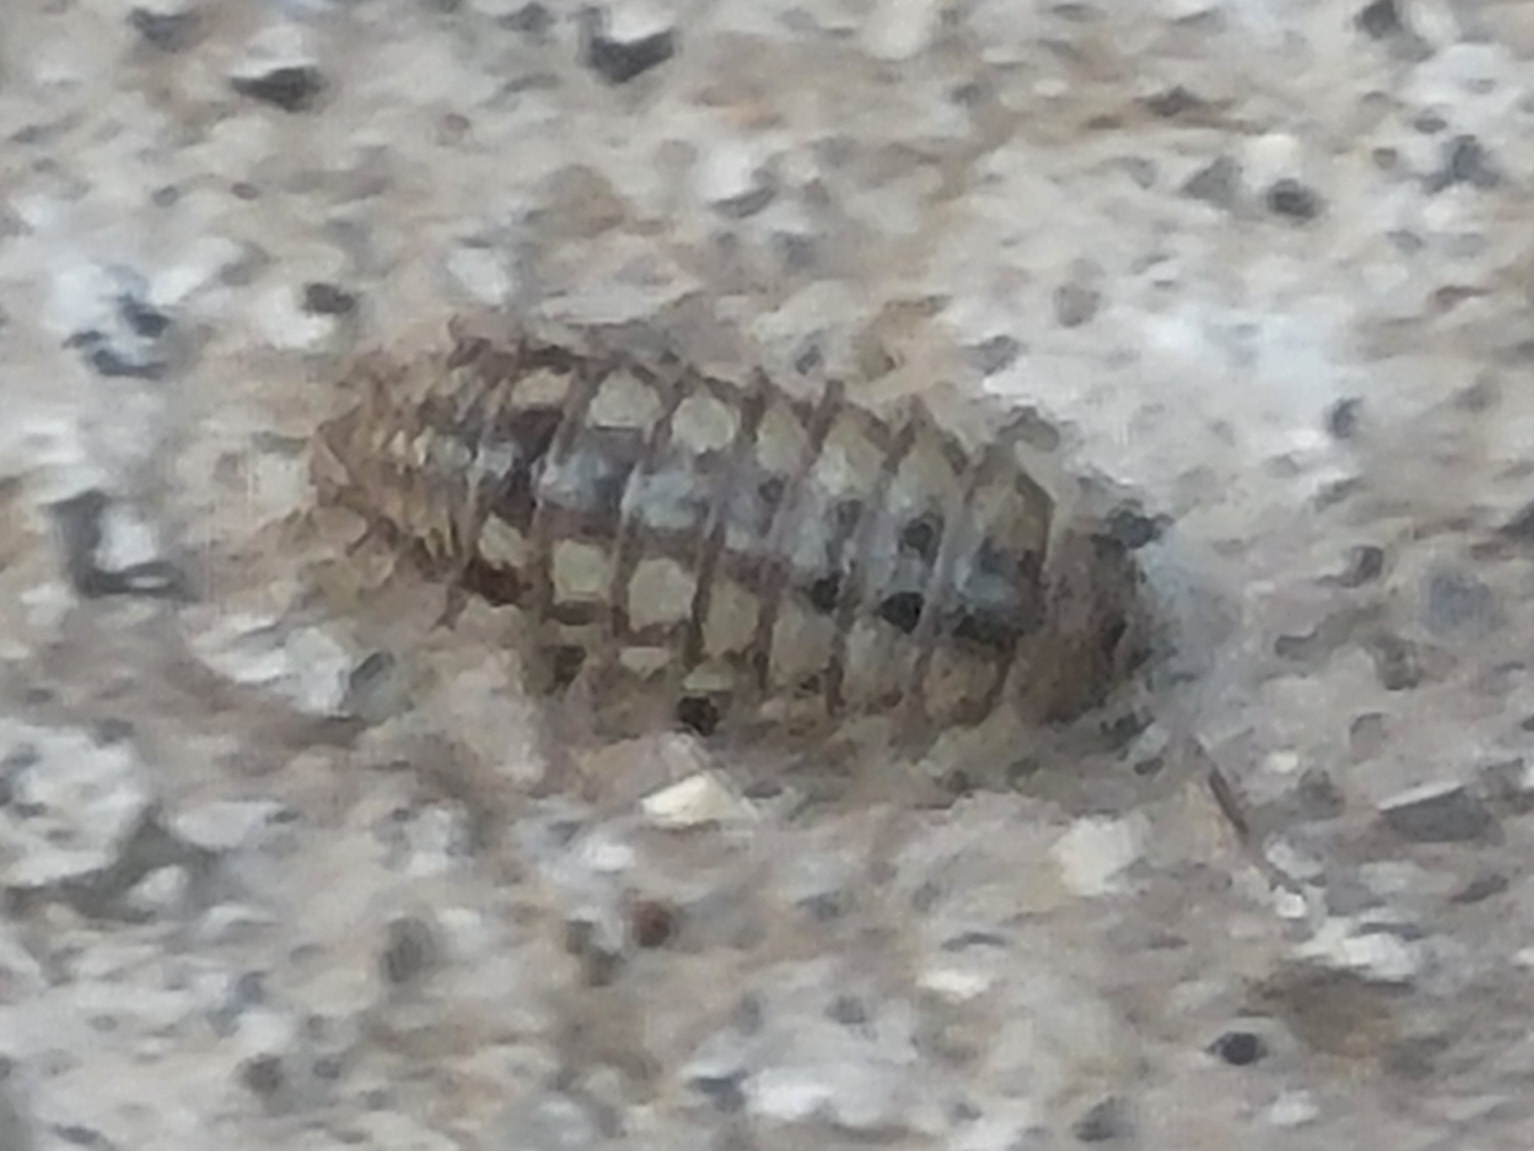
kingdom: Animalia
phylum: Arthropoda
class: Malacostraca
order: Isopoda
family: Armadillidiidae
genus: Armadillidium
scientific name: Armadillidium nasatum
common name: Isopod
